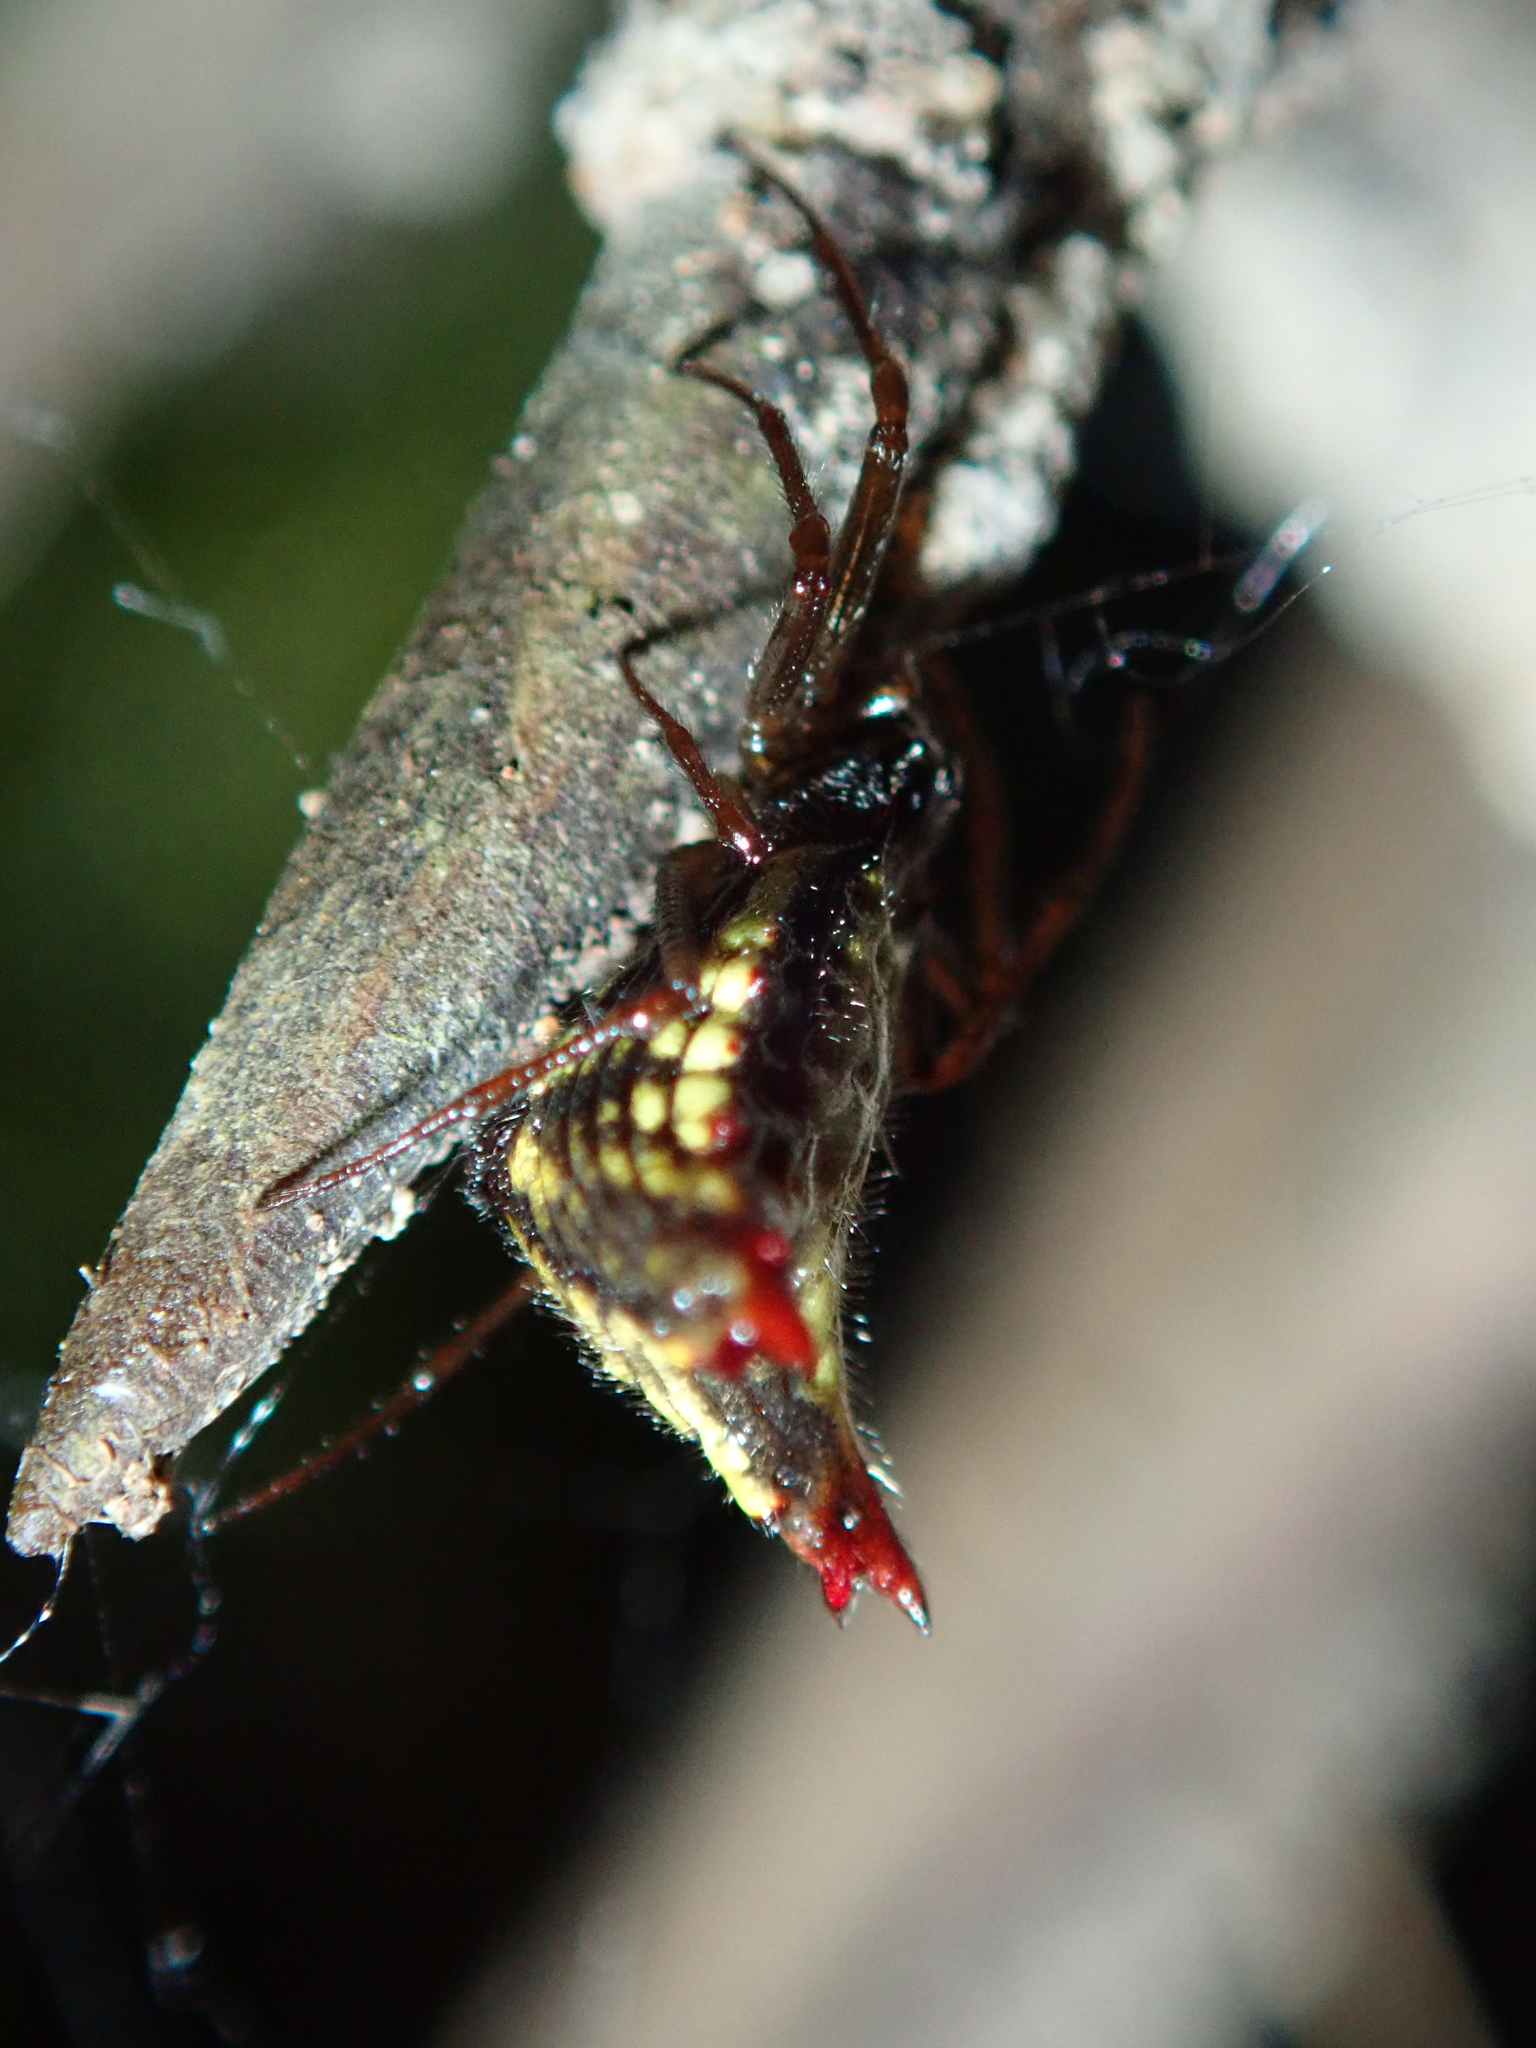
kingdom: Animalia
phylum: Arthropoda
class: Arachnida
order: Araneae
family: Araneidae
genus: Micrathena
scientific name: Micrathena plana
